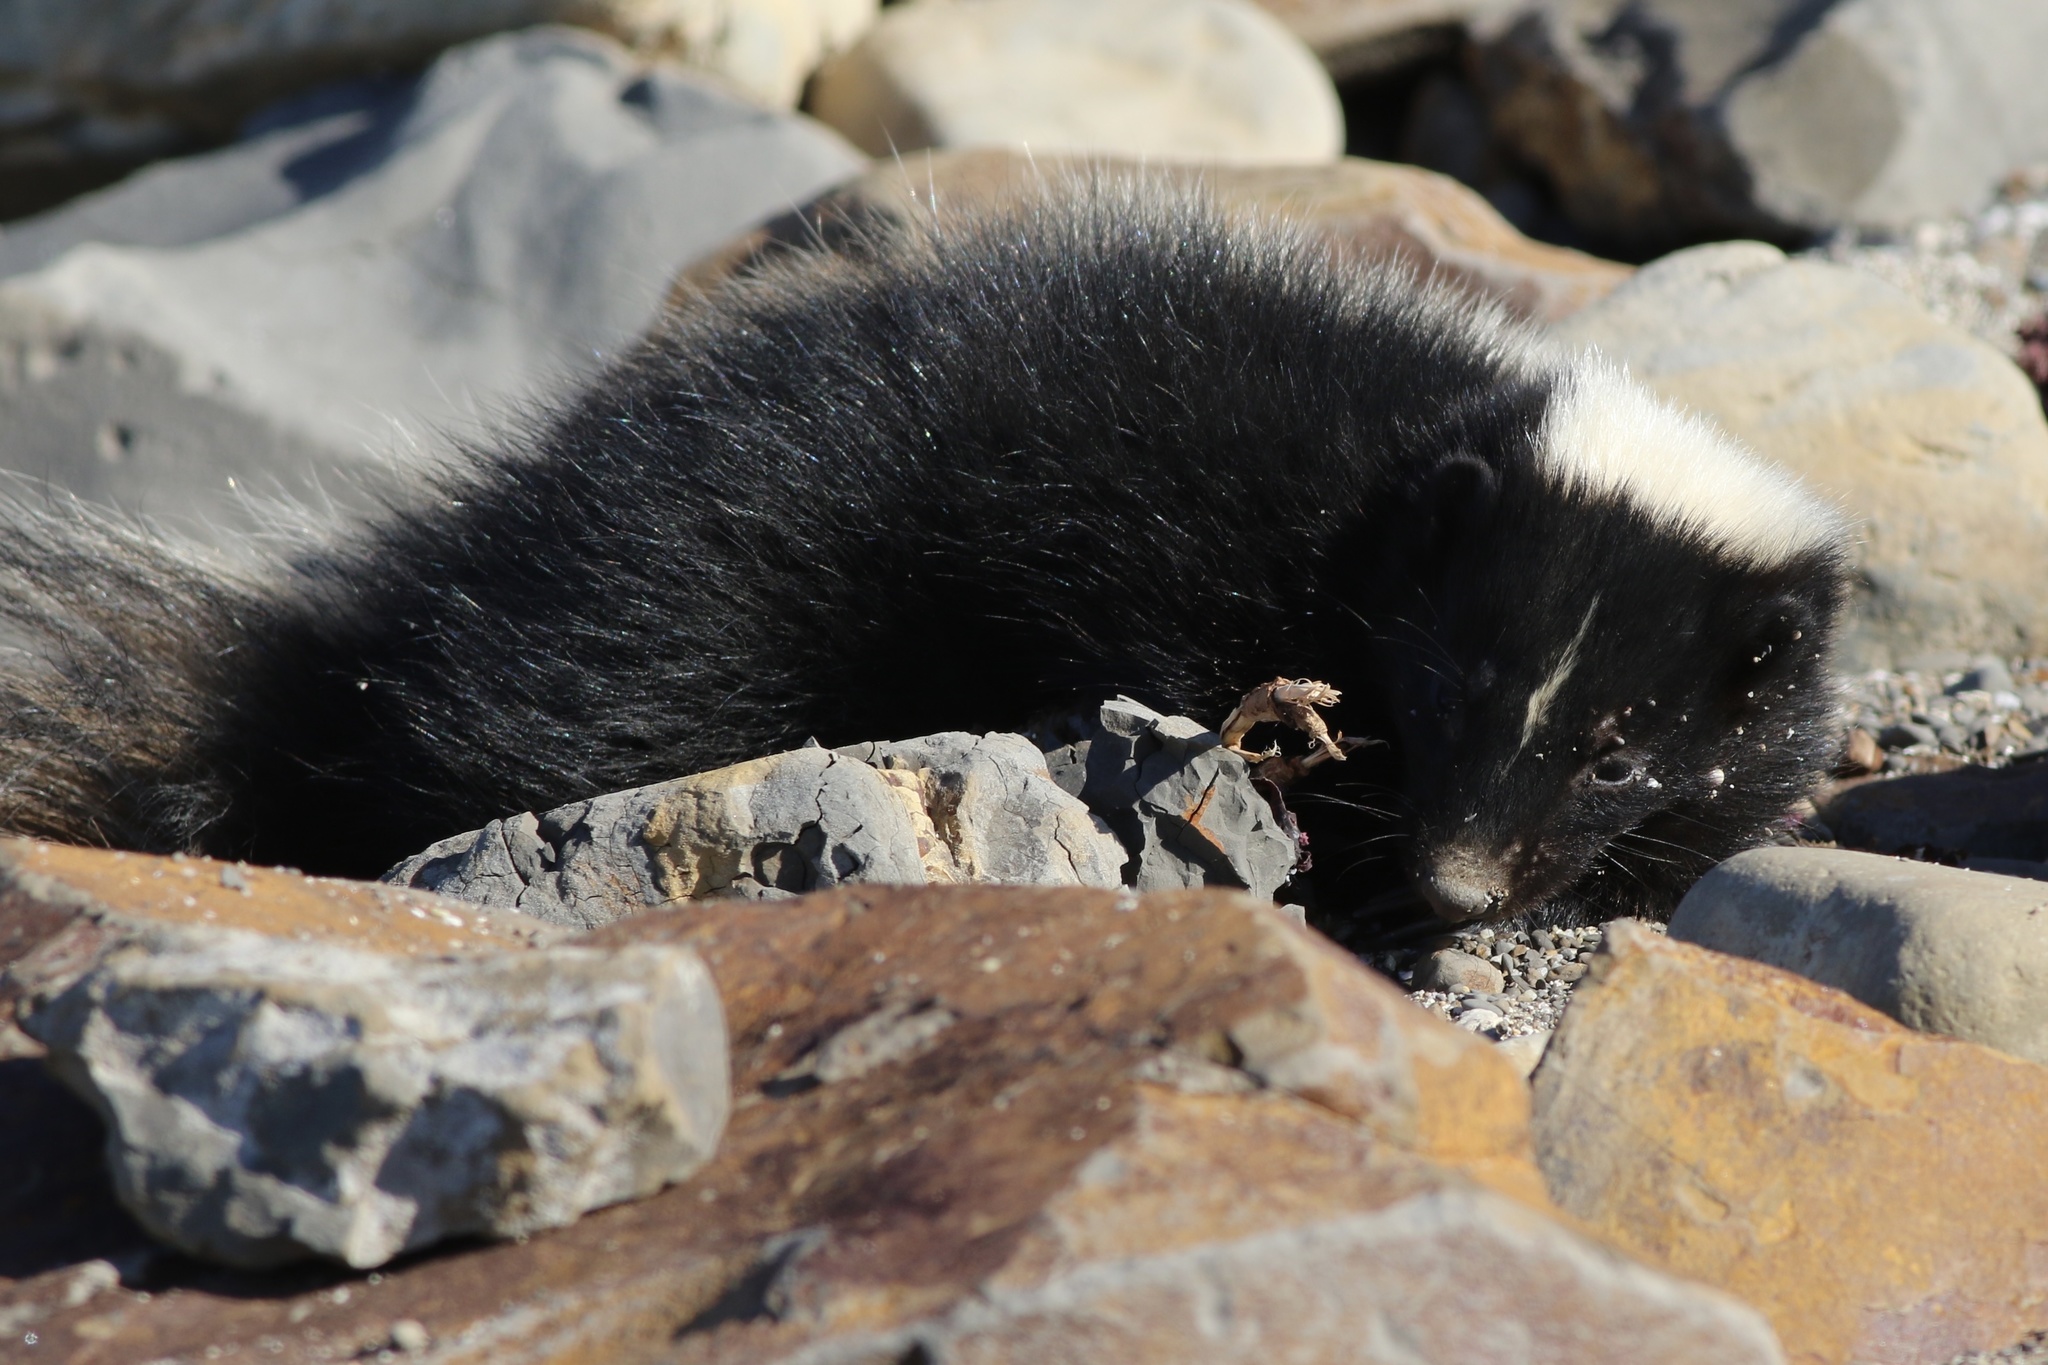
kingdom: Animalia
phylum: Chordata
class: Mammalia
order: Carnivora
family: Mephitidae
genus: Mephitis
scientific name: Mephitis mephitis
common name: Striped skunk
